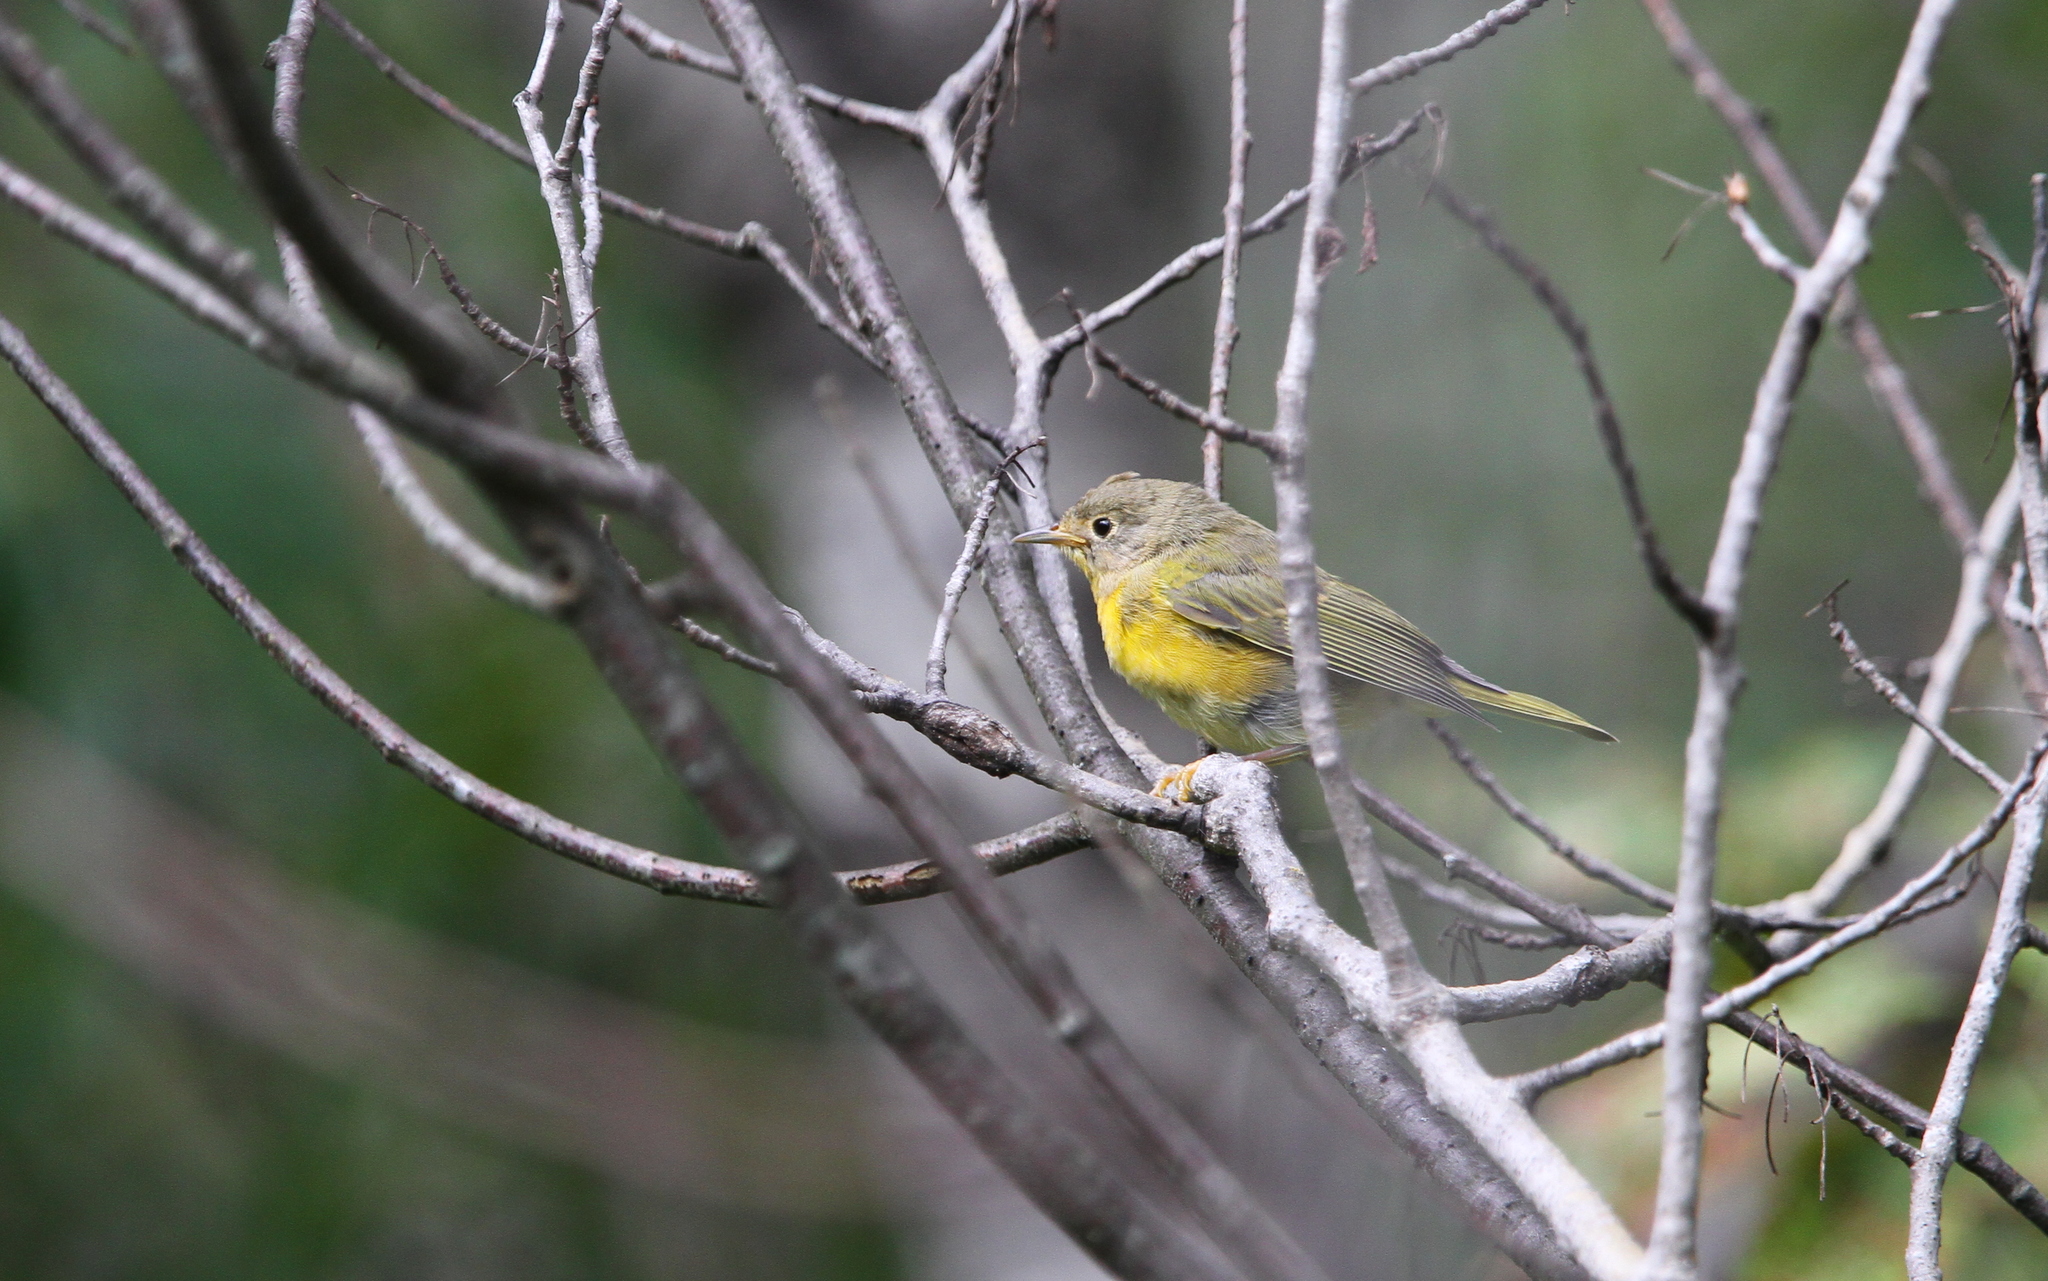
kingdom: Animalia
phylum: Chordata
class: Aves
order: Passeriformes
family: Parulidae
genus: Leiothlypis
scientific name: Leiothlypis ruficapilla
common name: Nashville warbler
